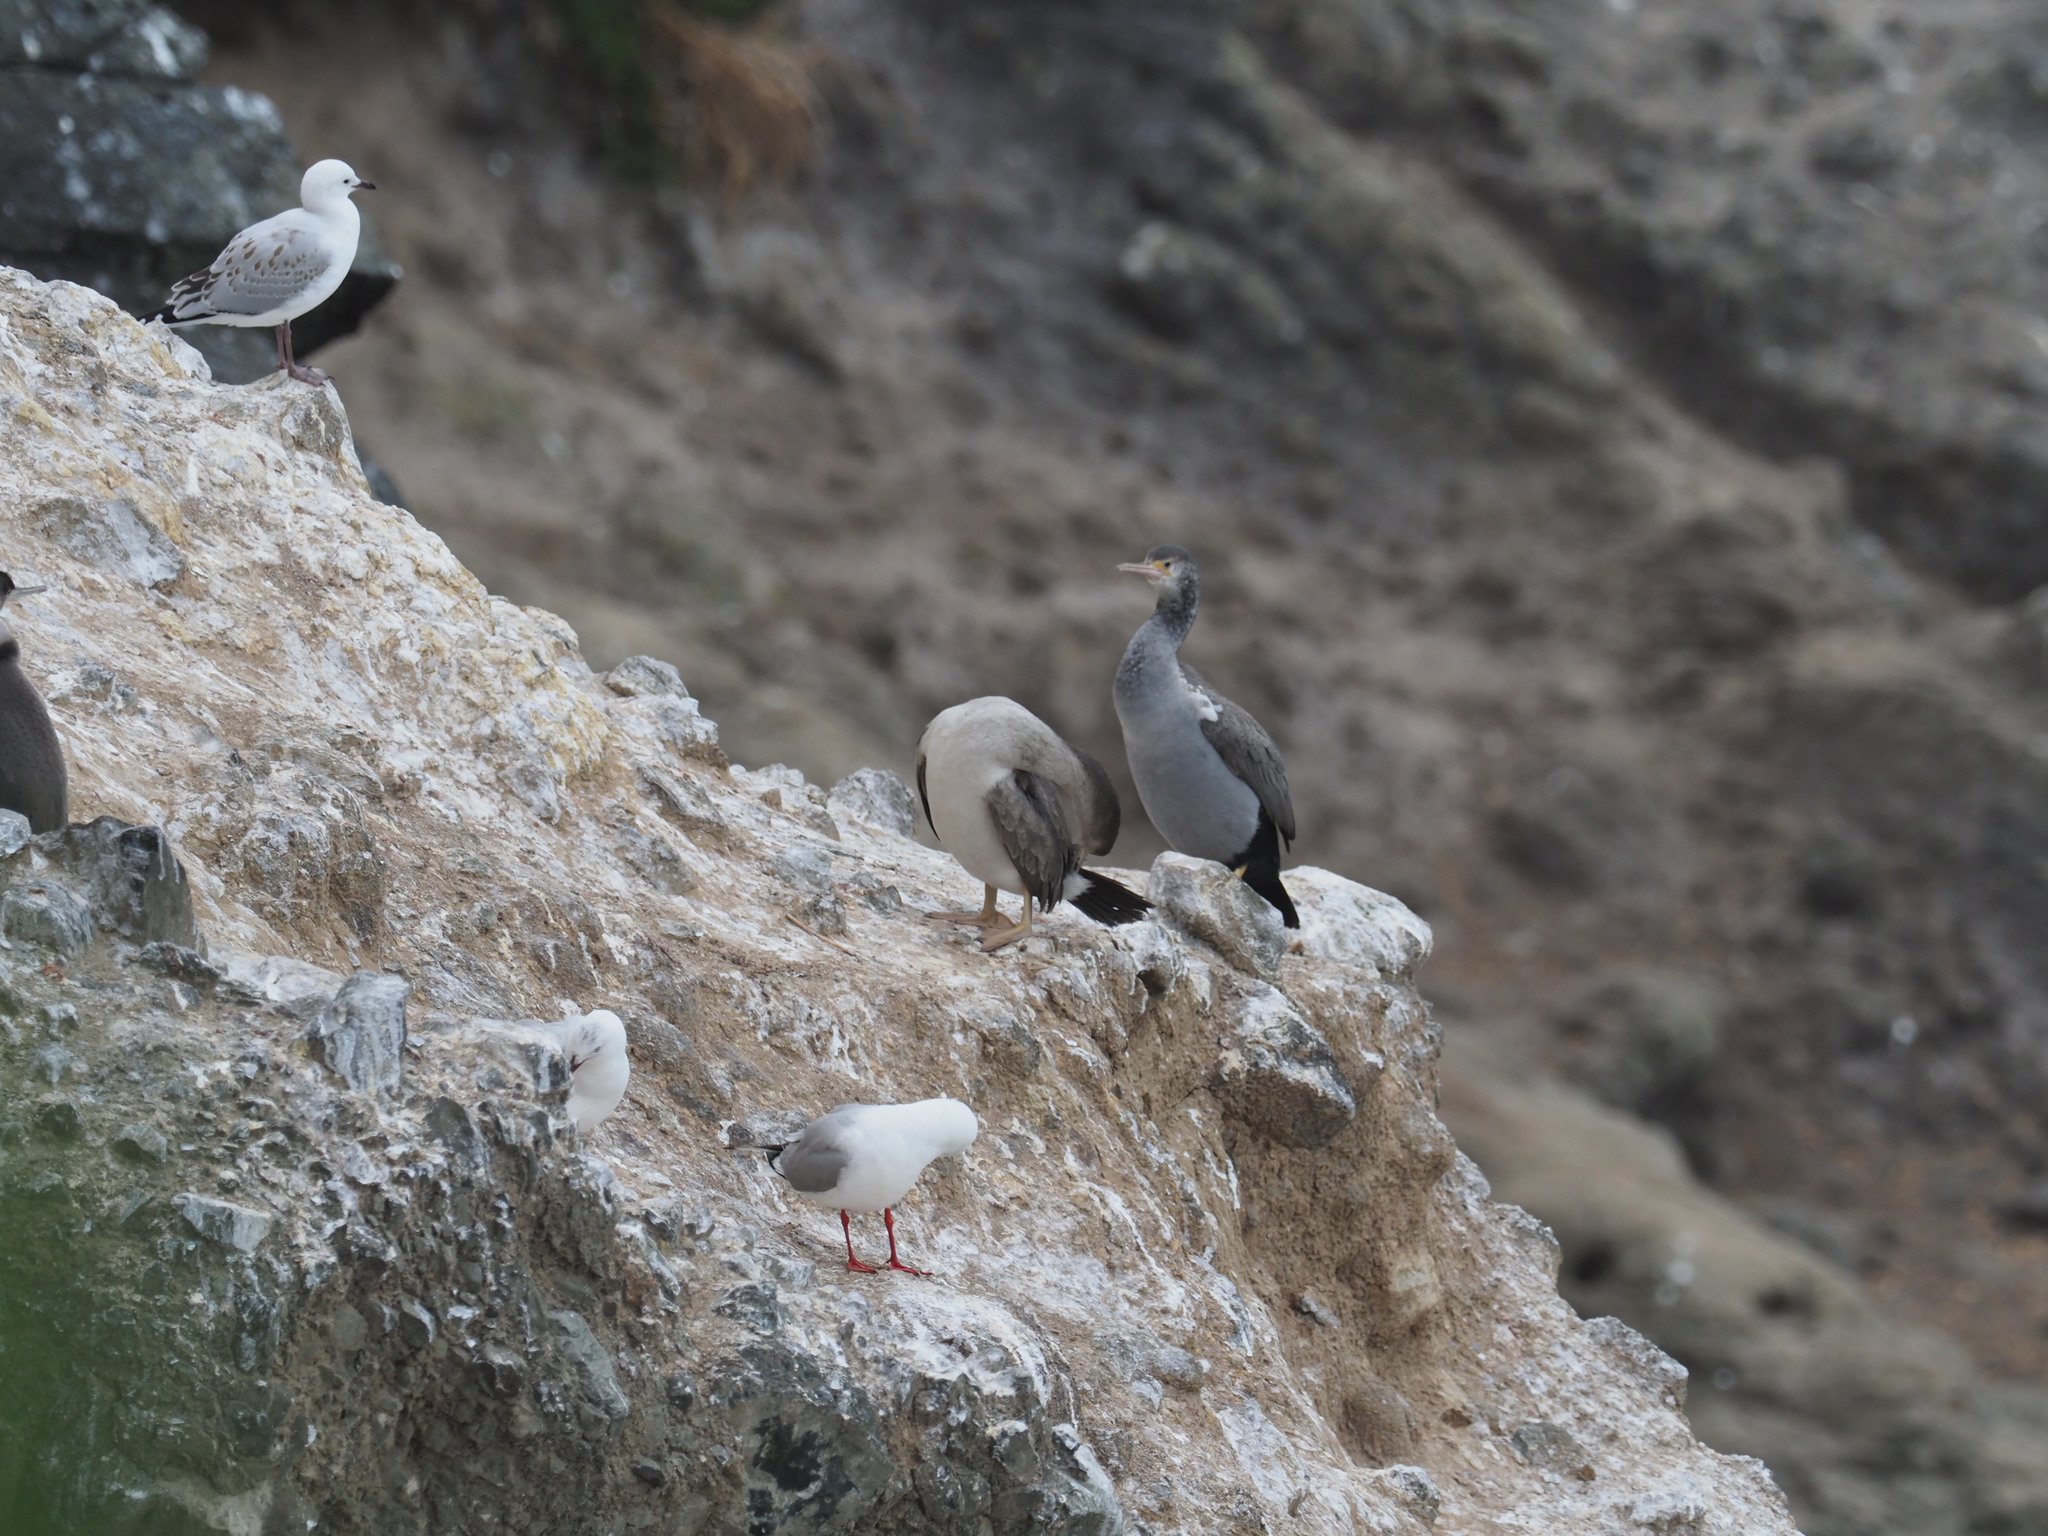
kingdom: Animalia
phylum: Chordata
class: Aves
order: Suliformes
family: Phalacrocoracidae
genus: Phalacrocorax
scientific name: Phalacrocorax punctatus
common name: Spotted shag
